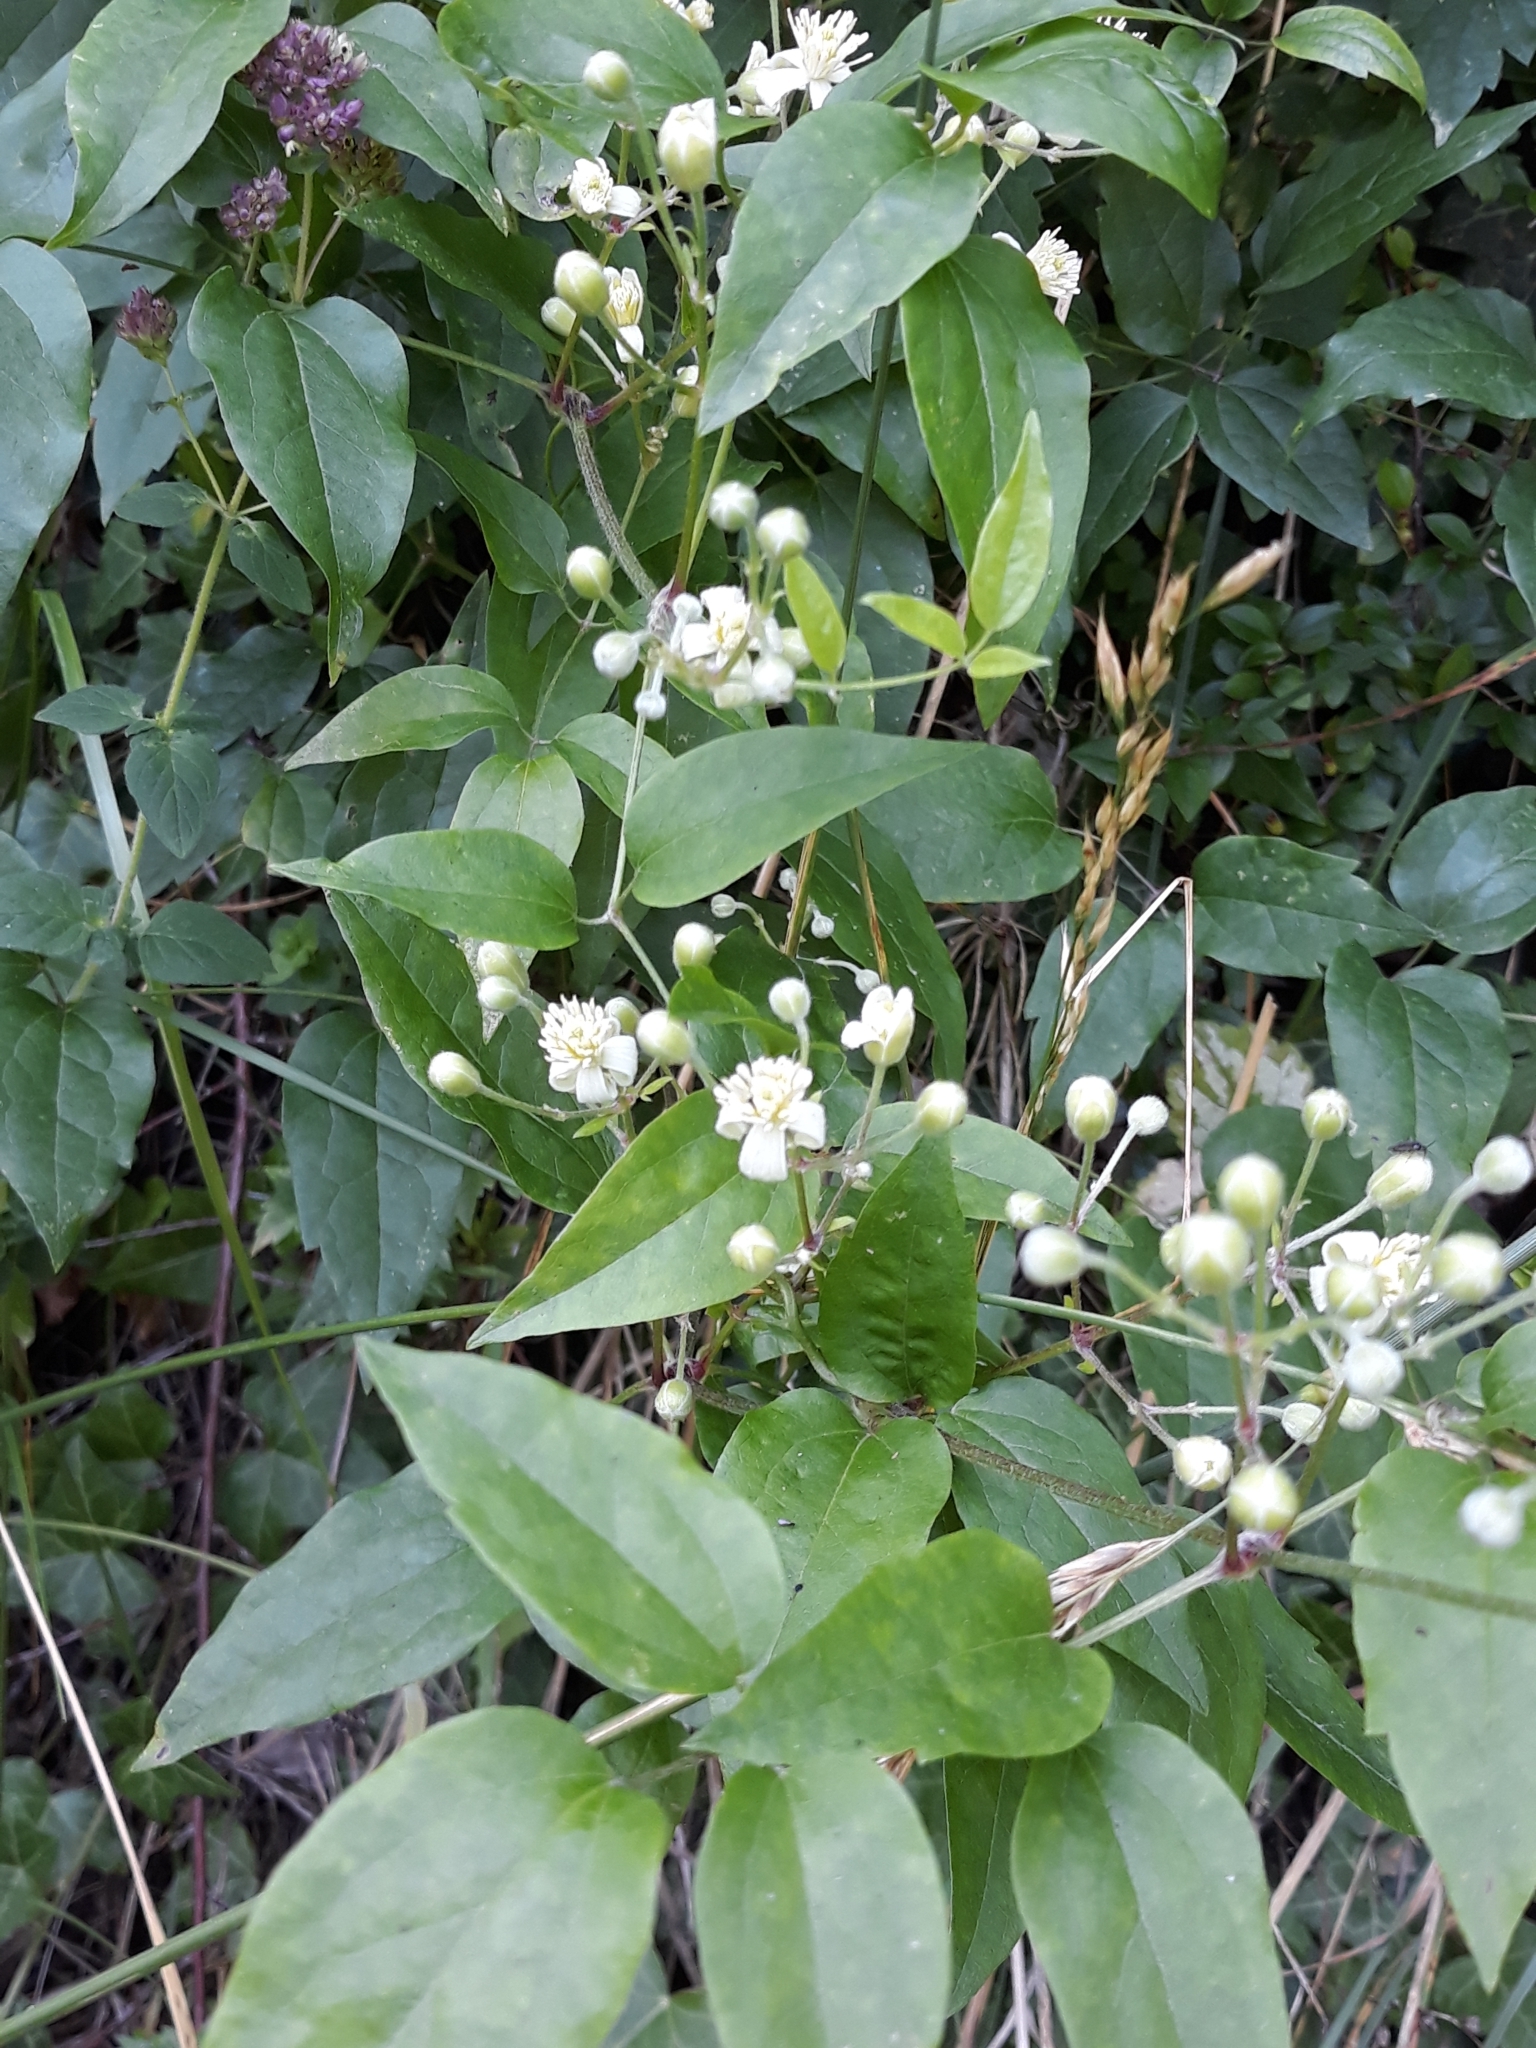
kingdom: Plantae
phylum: Tracheophyta
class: Magnoliopsida
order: Ranunculales
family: Ranunculaceae
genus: Clematis
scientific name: Clematis vitalba
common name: Evergreen clematis
